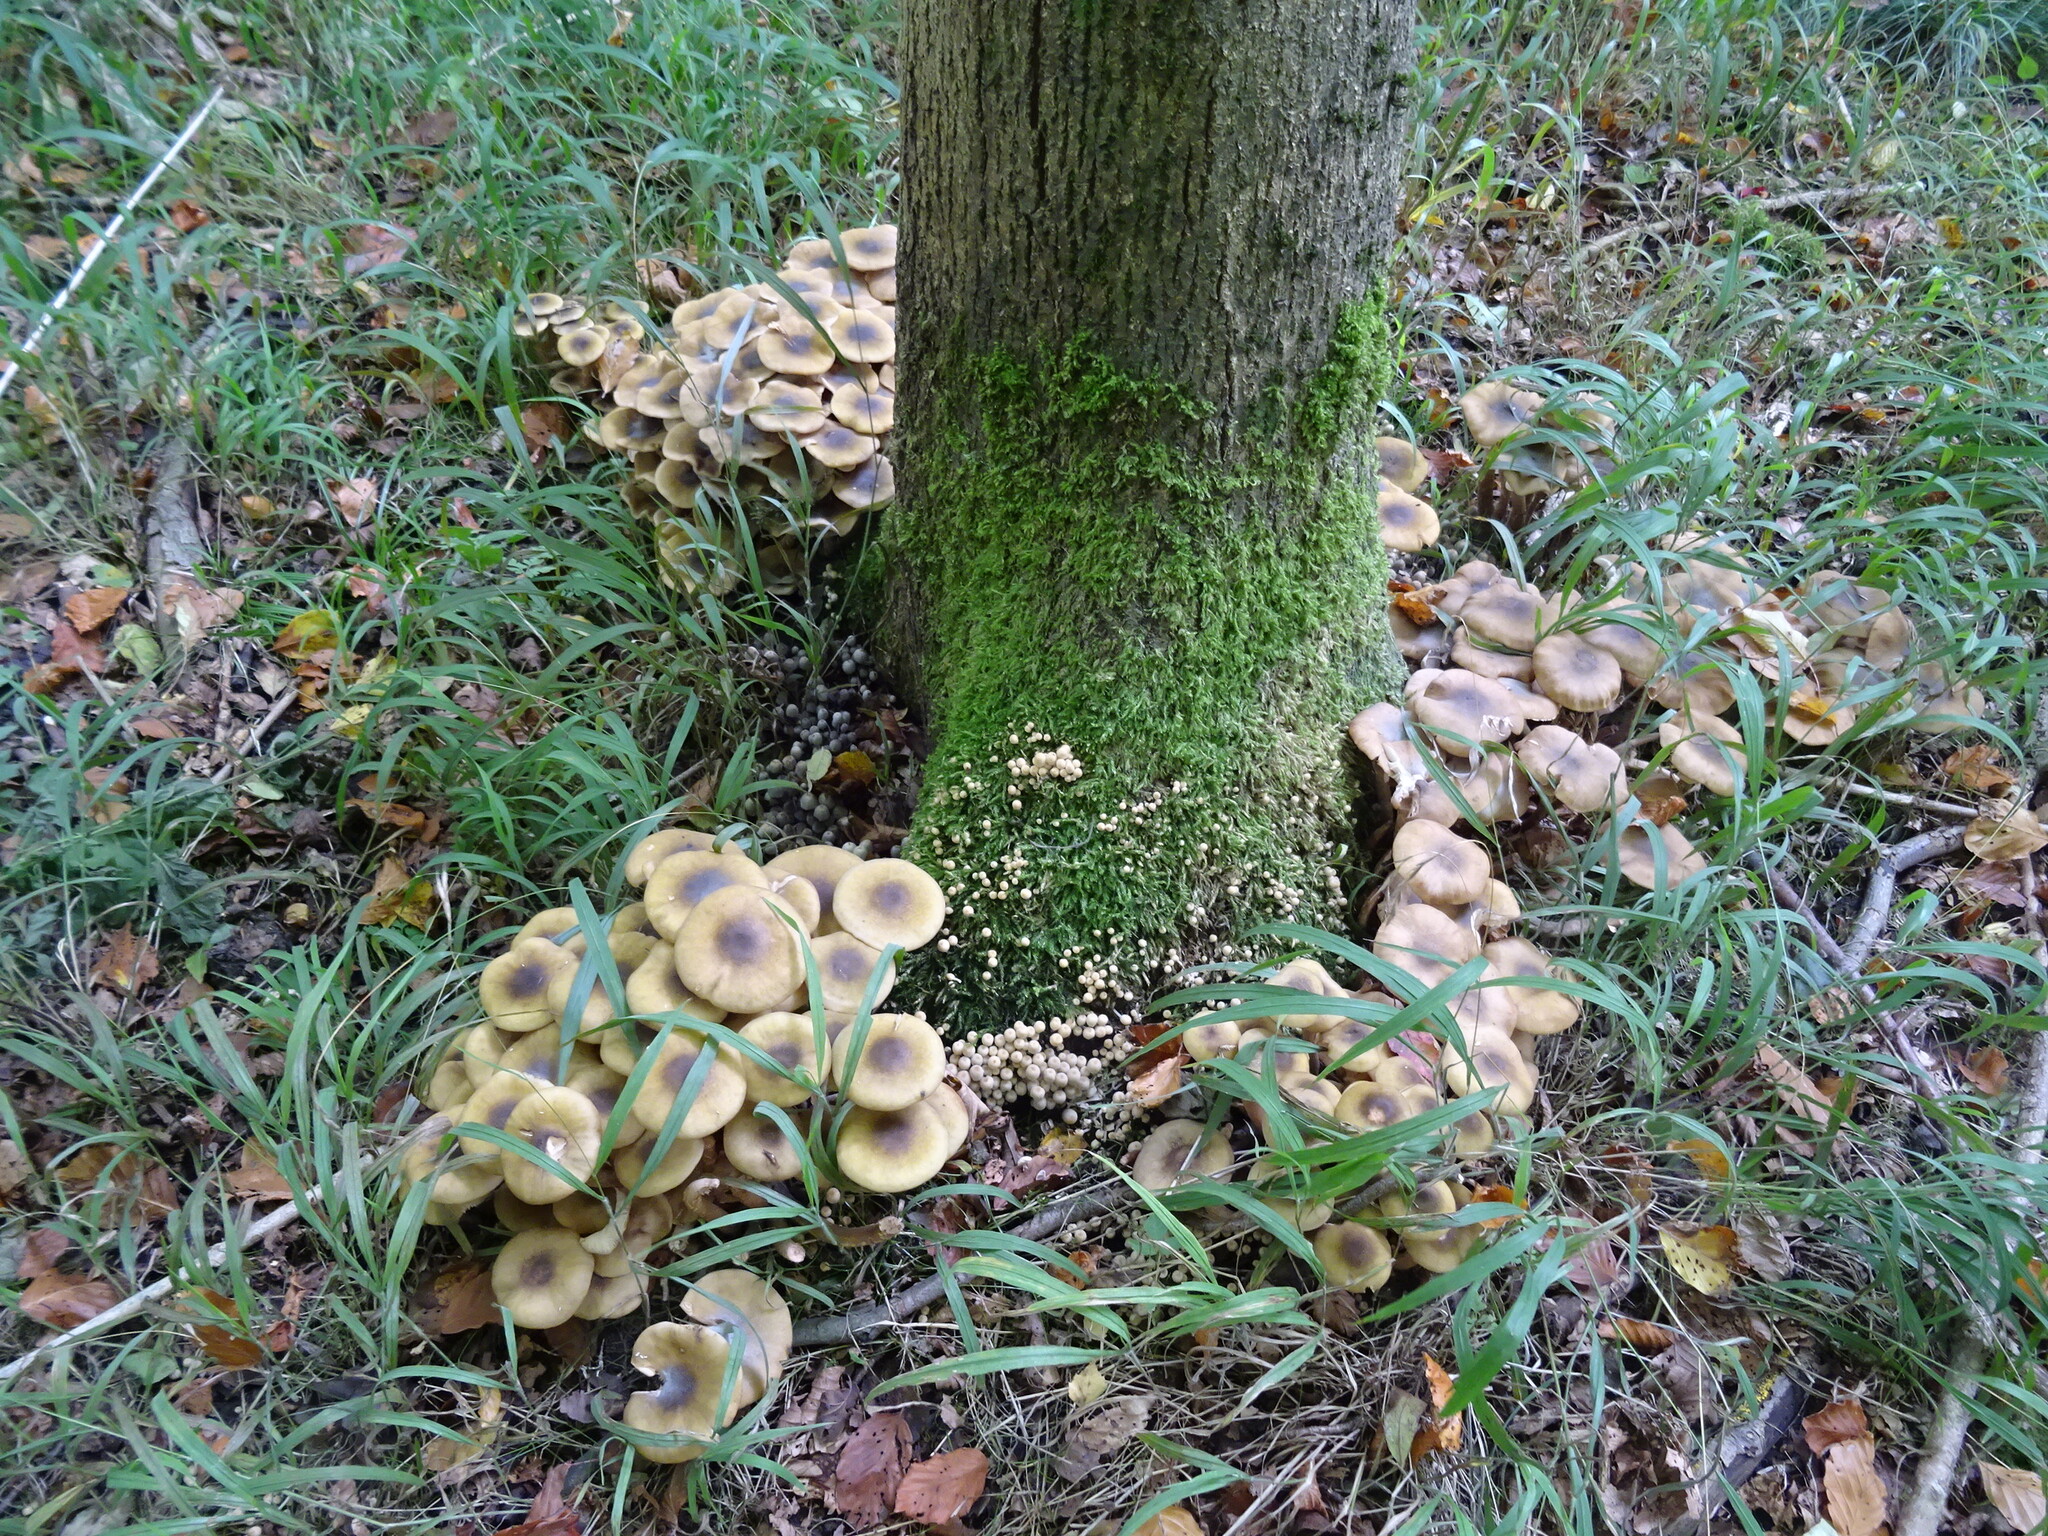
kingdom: Fungi
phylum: Basidiomycota
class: Agaricomycetes
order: Agaricales
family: Physalacriaceae
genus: Armillaria
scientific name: Armillaria mellea
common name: Honey fungus
